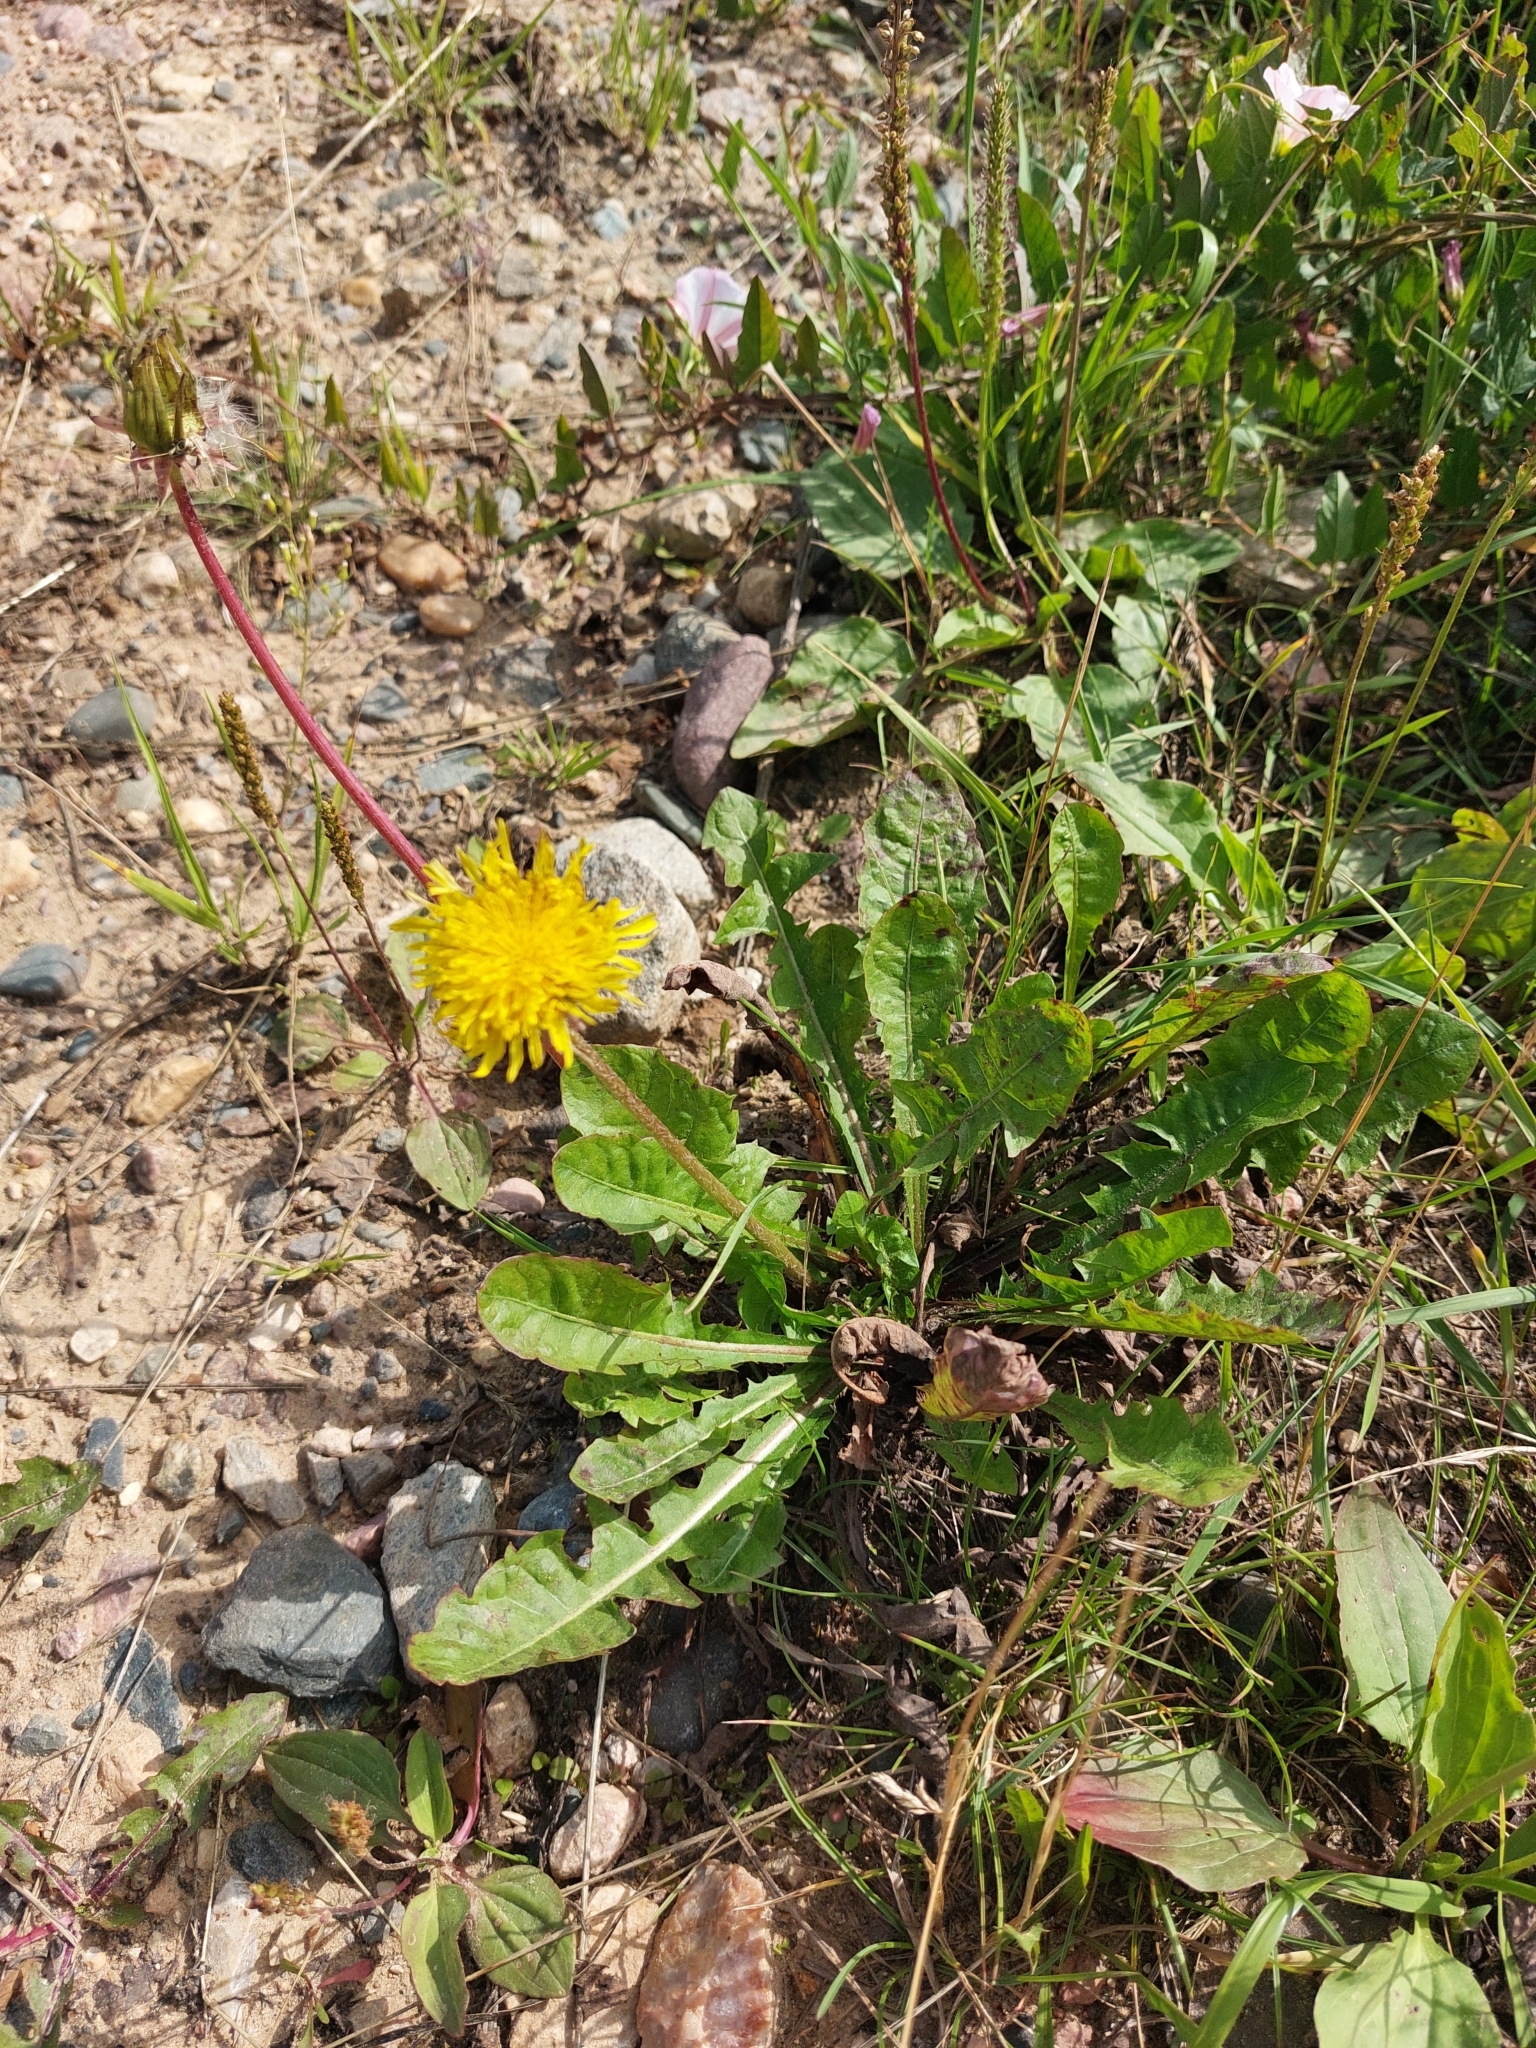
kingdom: Plantae
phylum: Tracheophyta
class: Magnoliopsida
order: Asterales
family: Asteraceae
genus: Taraxacum
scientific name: Taraxacum officinale
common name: Common dandelion
